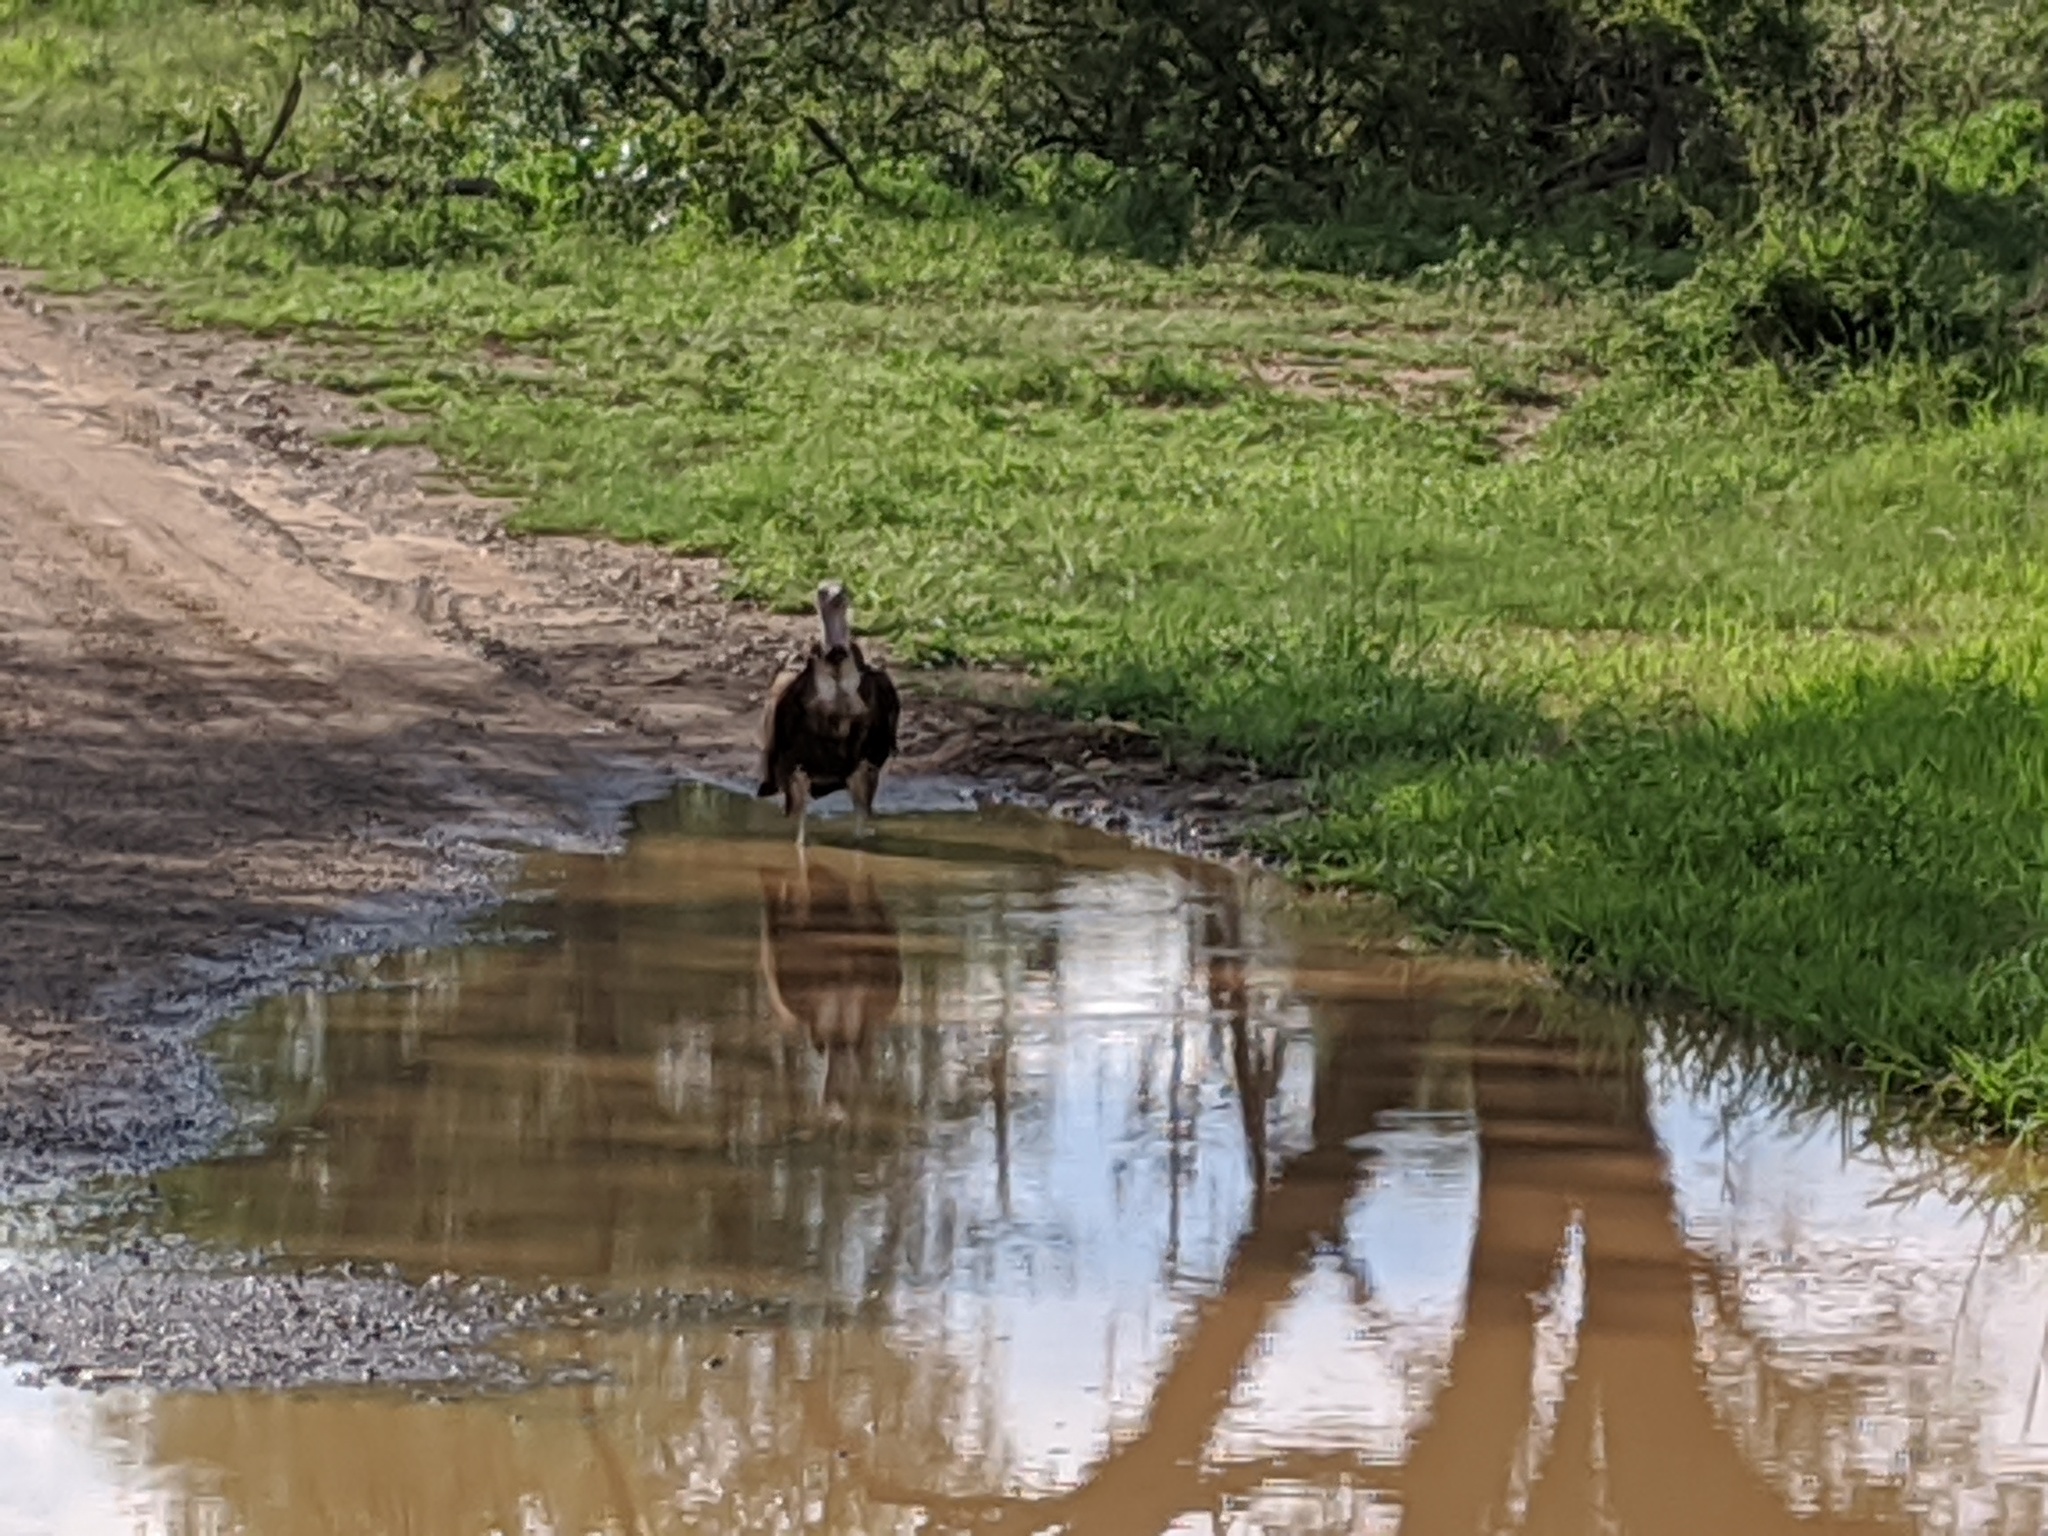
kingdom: Animalia
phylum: Chordata
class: Aves
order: Accipitriformes
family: Accipitridae
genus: Necrosyrtes
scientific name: Necrosyrtes monachus
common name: Hooded vulture
